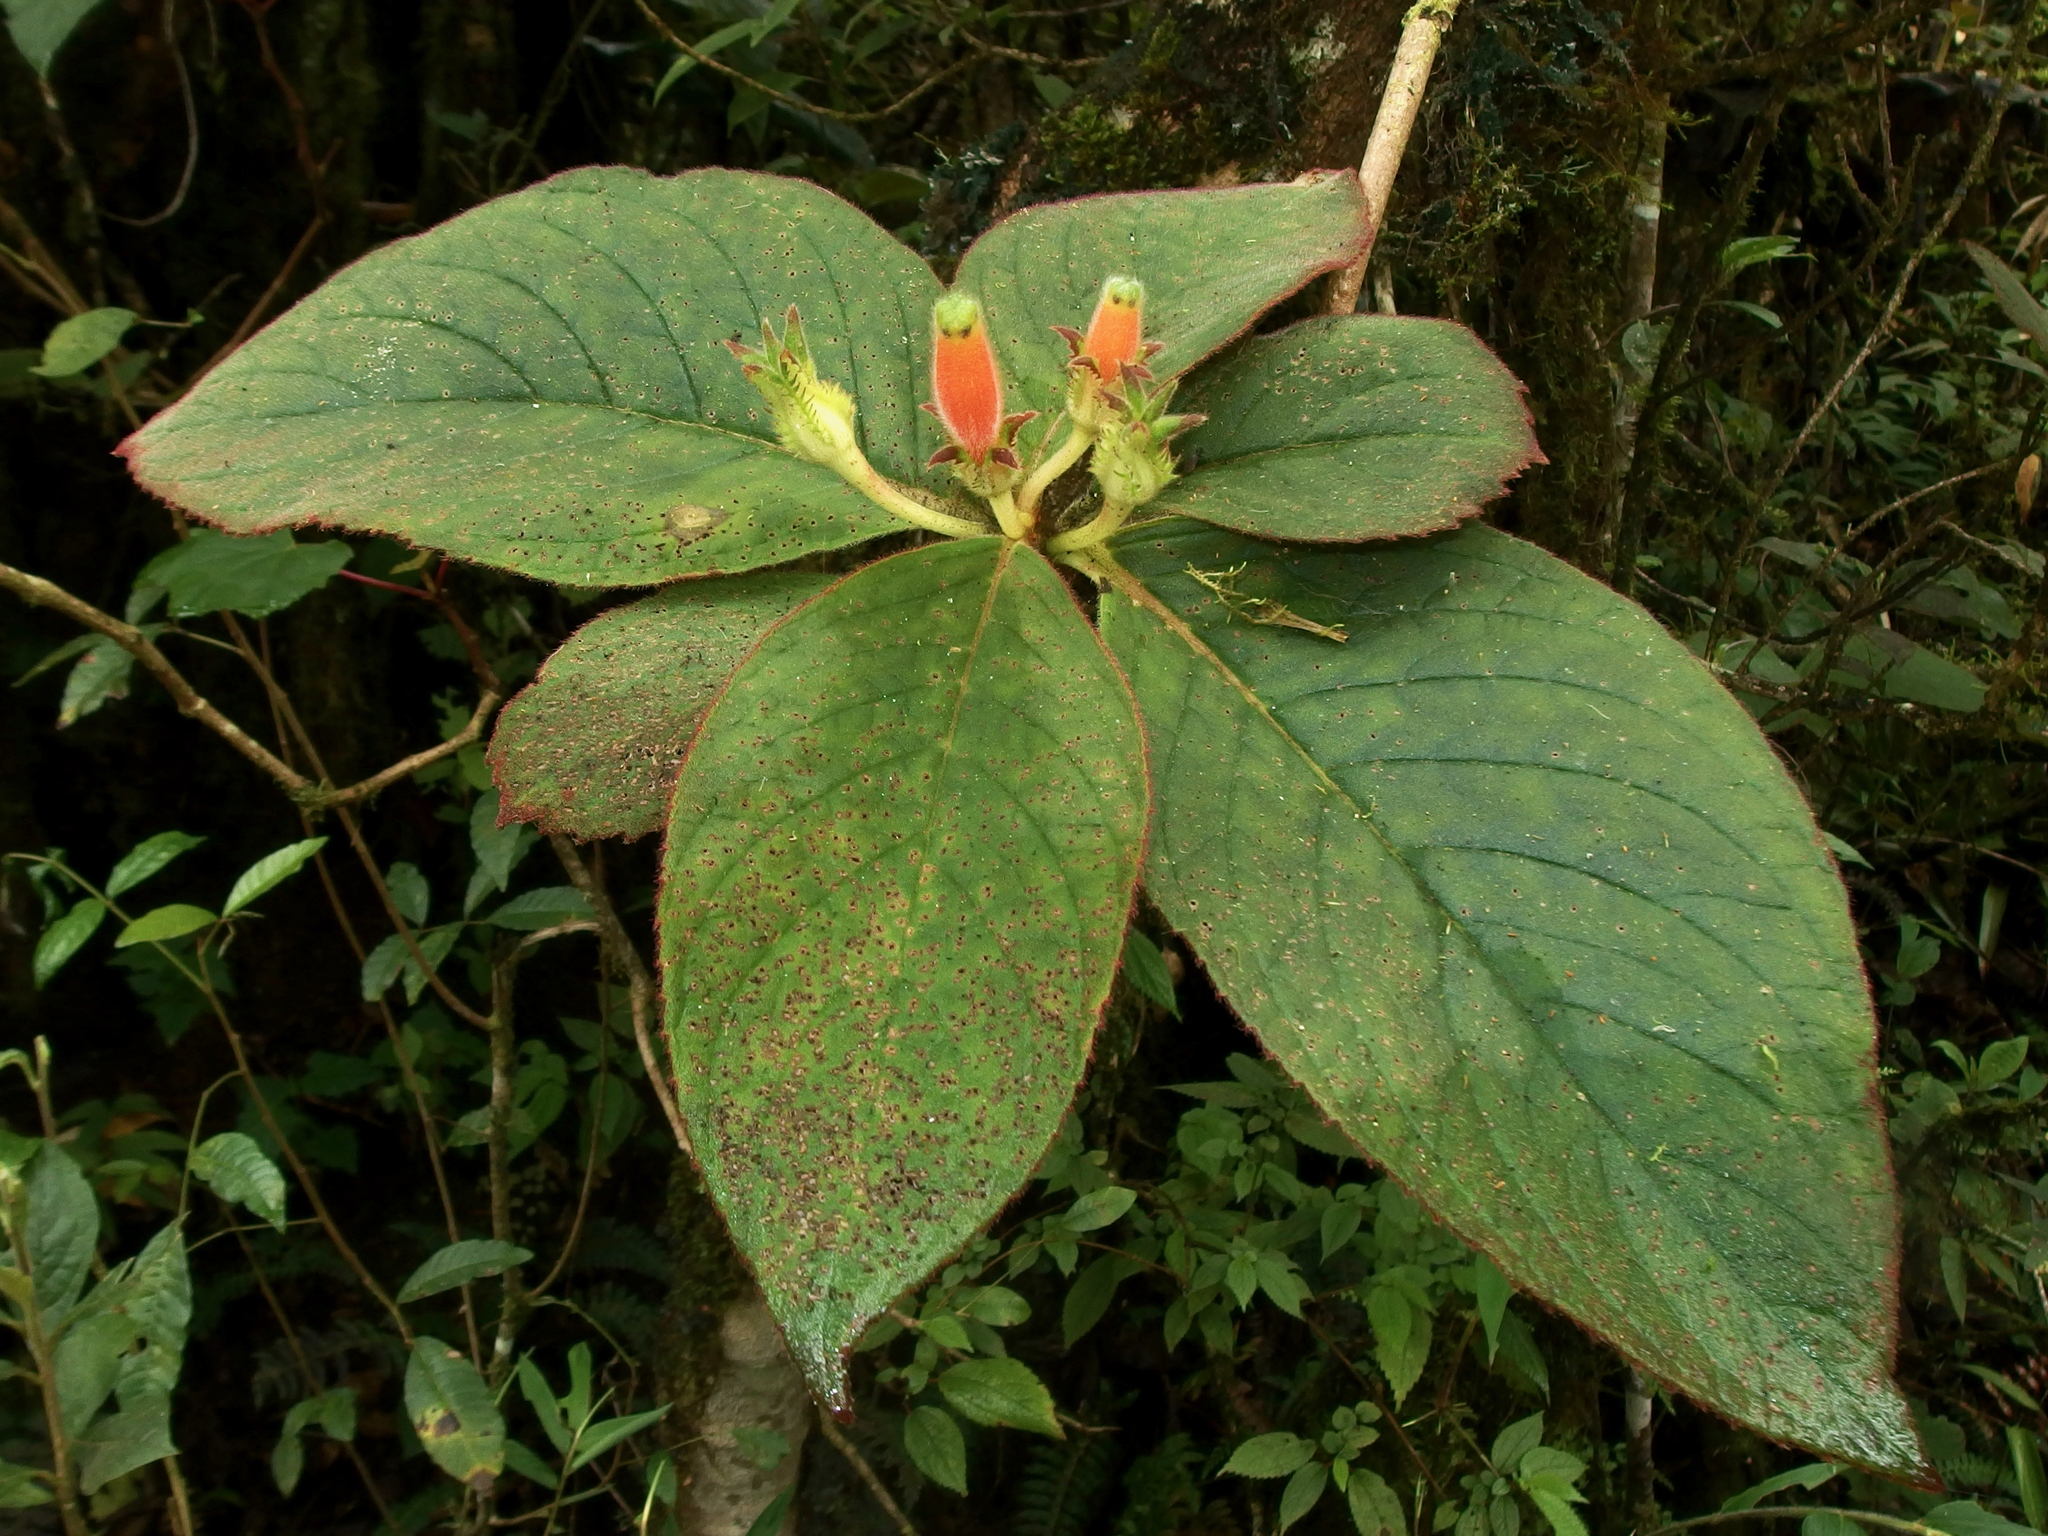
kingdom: Plantae
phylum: Tracheophyta
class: Magnoliopsida
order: Lamiales
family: Gesneriaceae
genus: Columnea
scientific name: Columnea poortmannii
